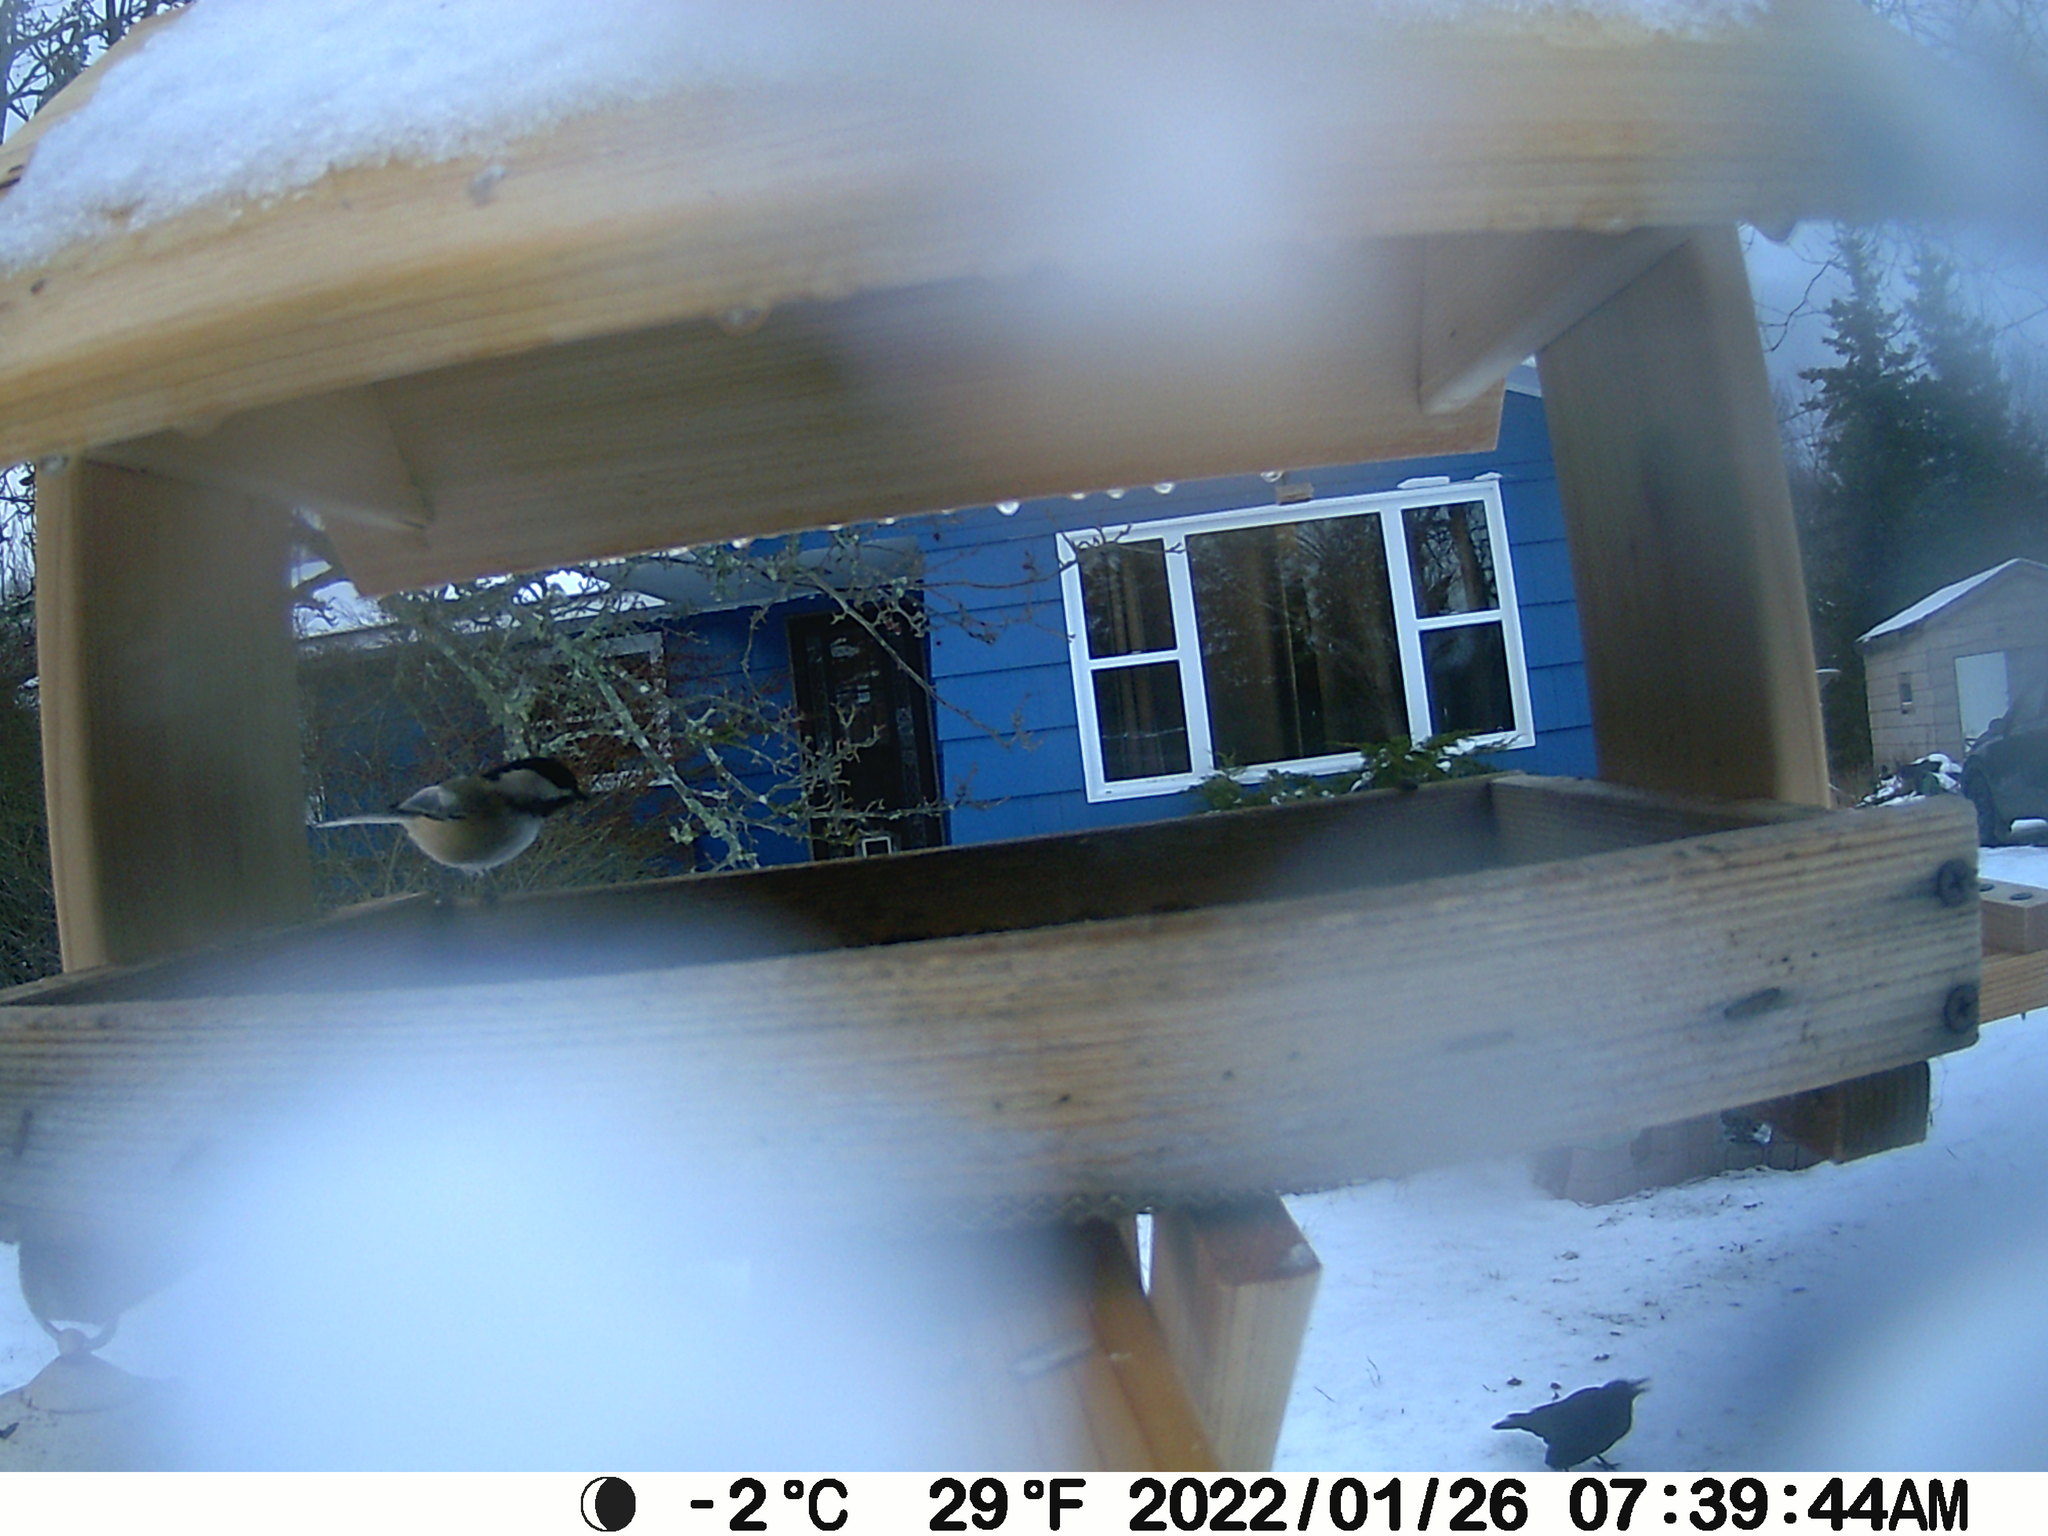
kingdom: Animalia
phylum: Chordata
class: Aves
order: Passeriformes
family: Paridae
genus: Poecile
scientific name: Poecile atricapillus
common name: Black-capped chickadee
